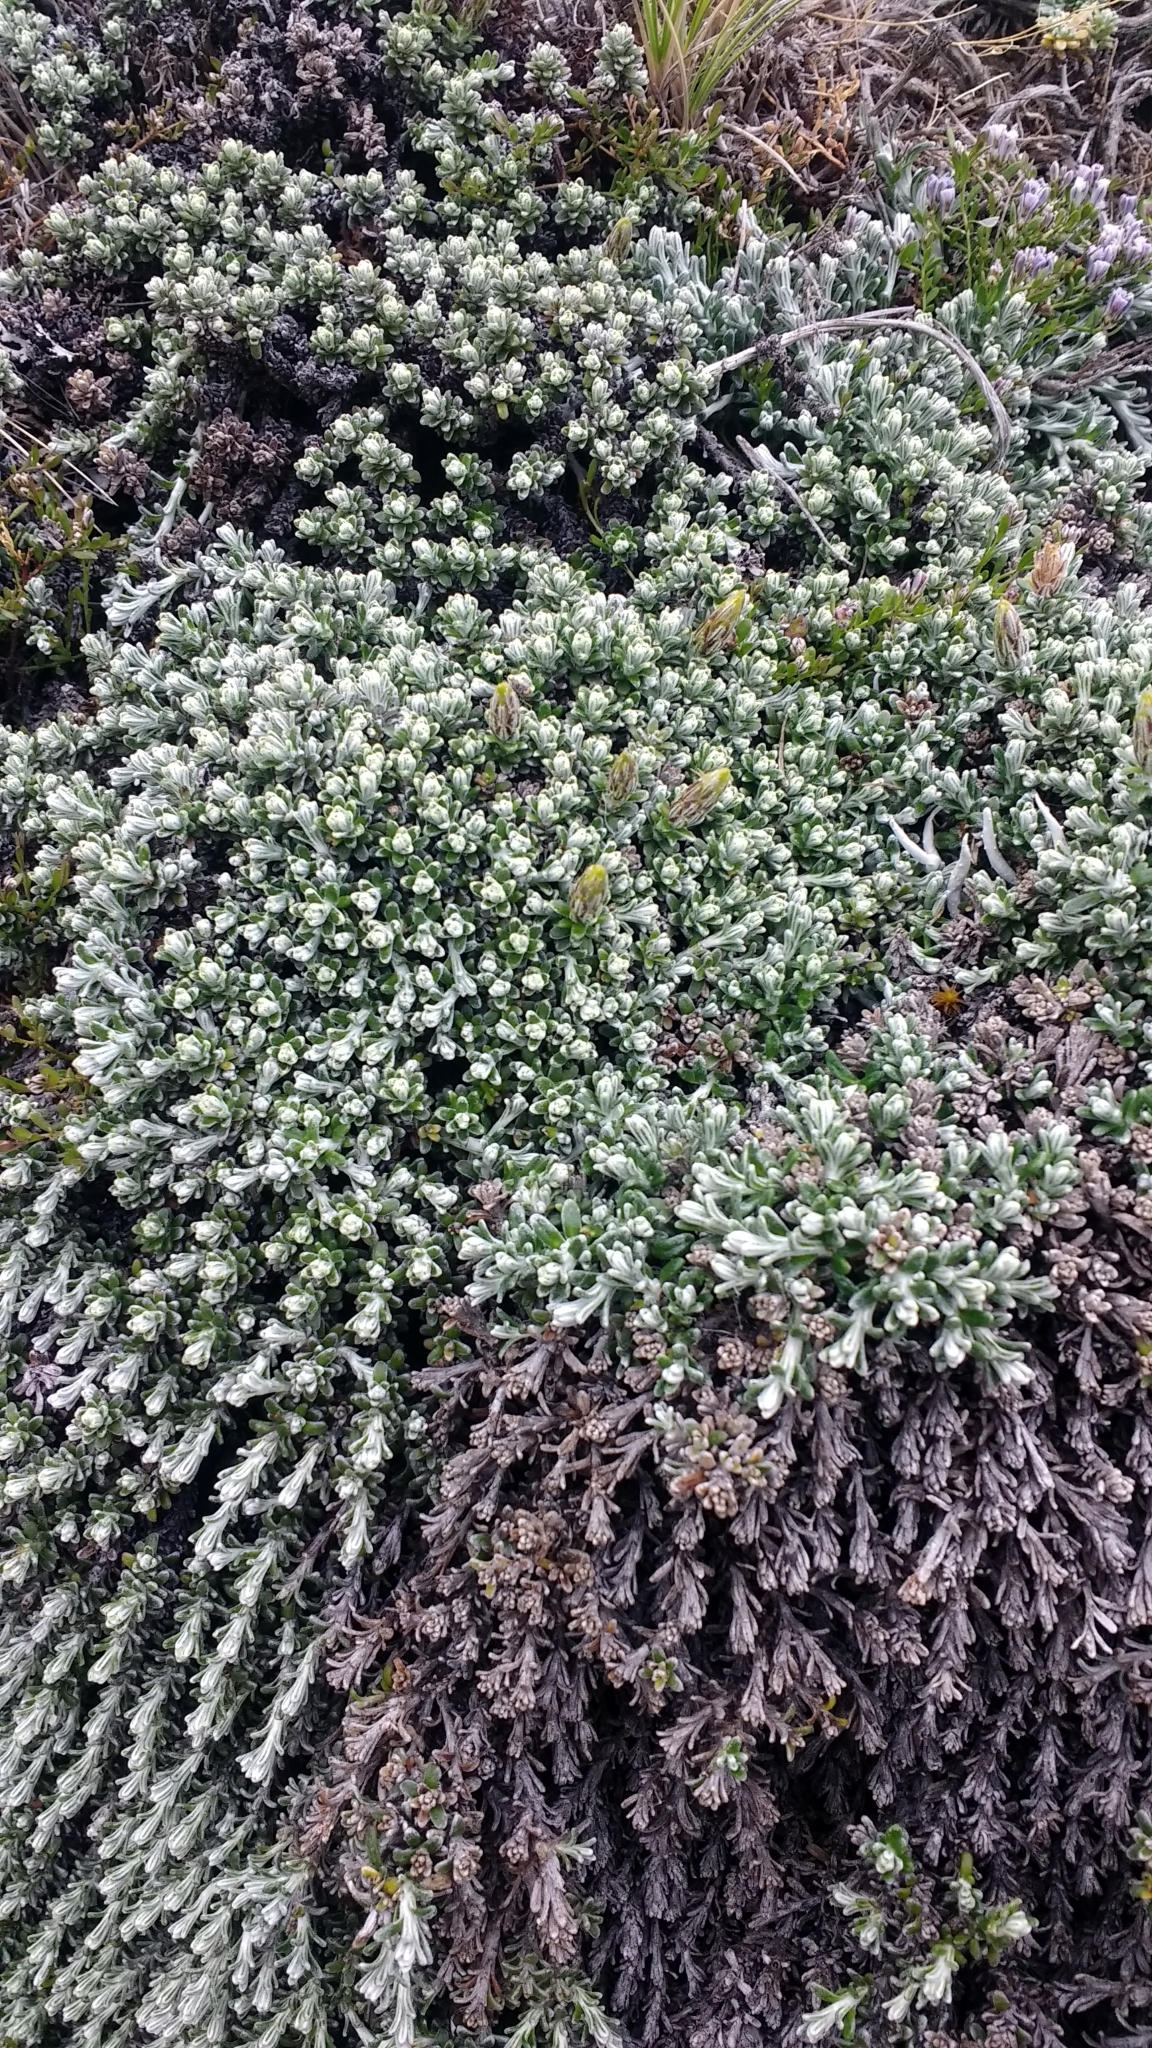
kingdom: Plantae
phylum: Tracheophyta
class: Magnoliopsida
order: Asterales
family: Asteraceae
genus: Nardophyllum
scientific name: Nardophyllum bryoides
